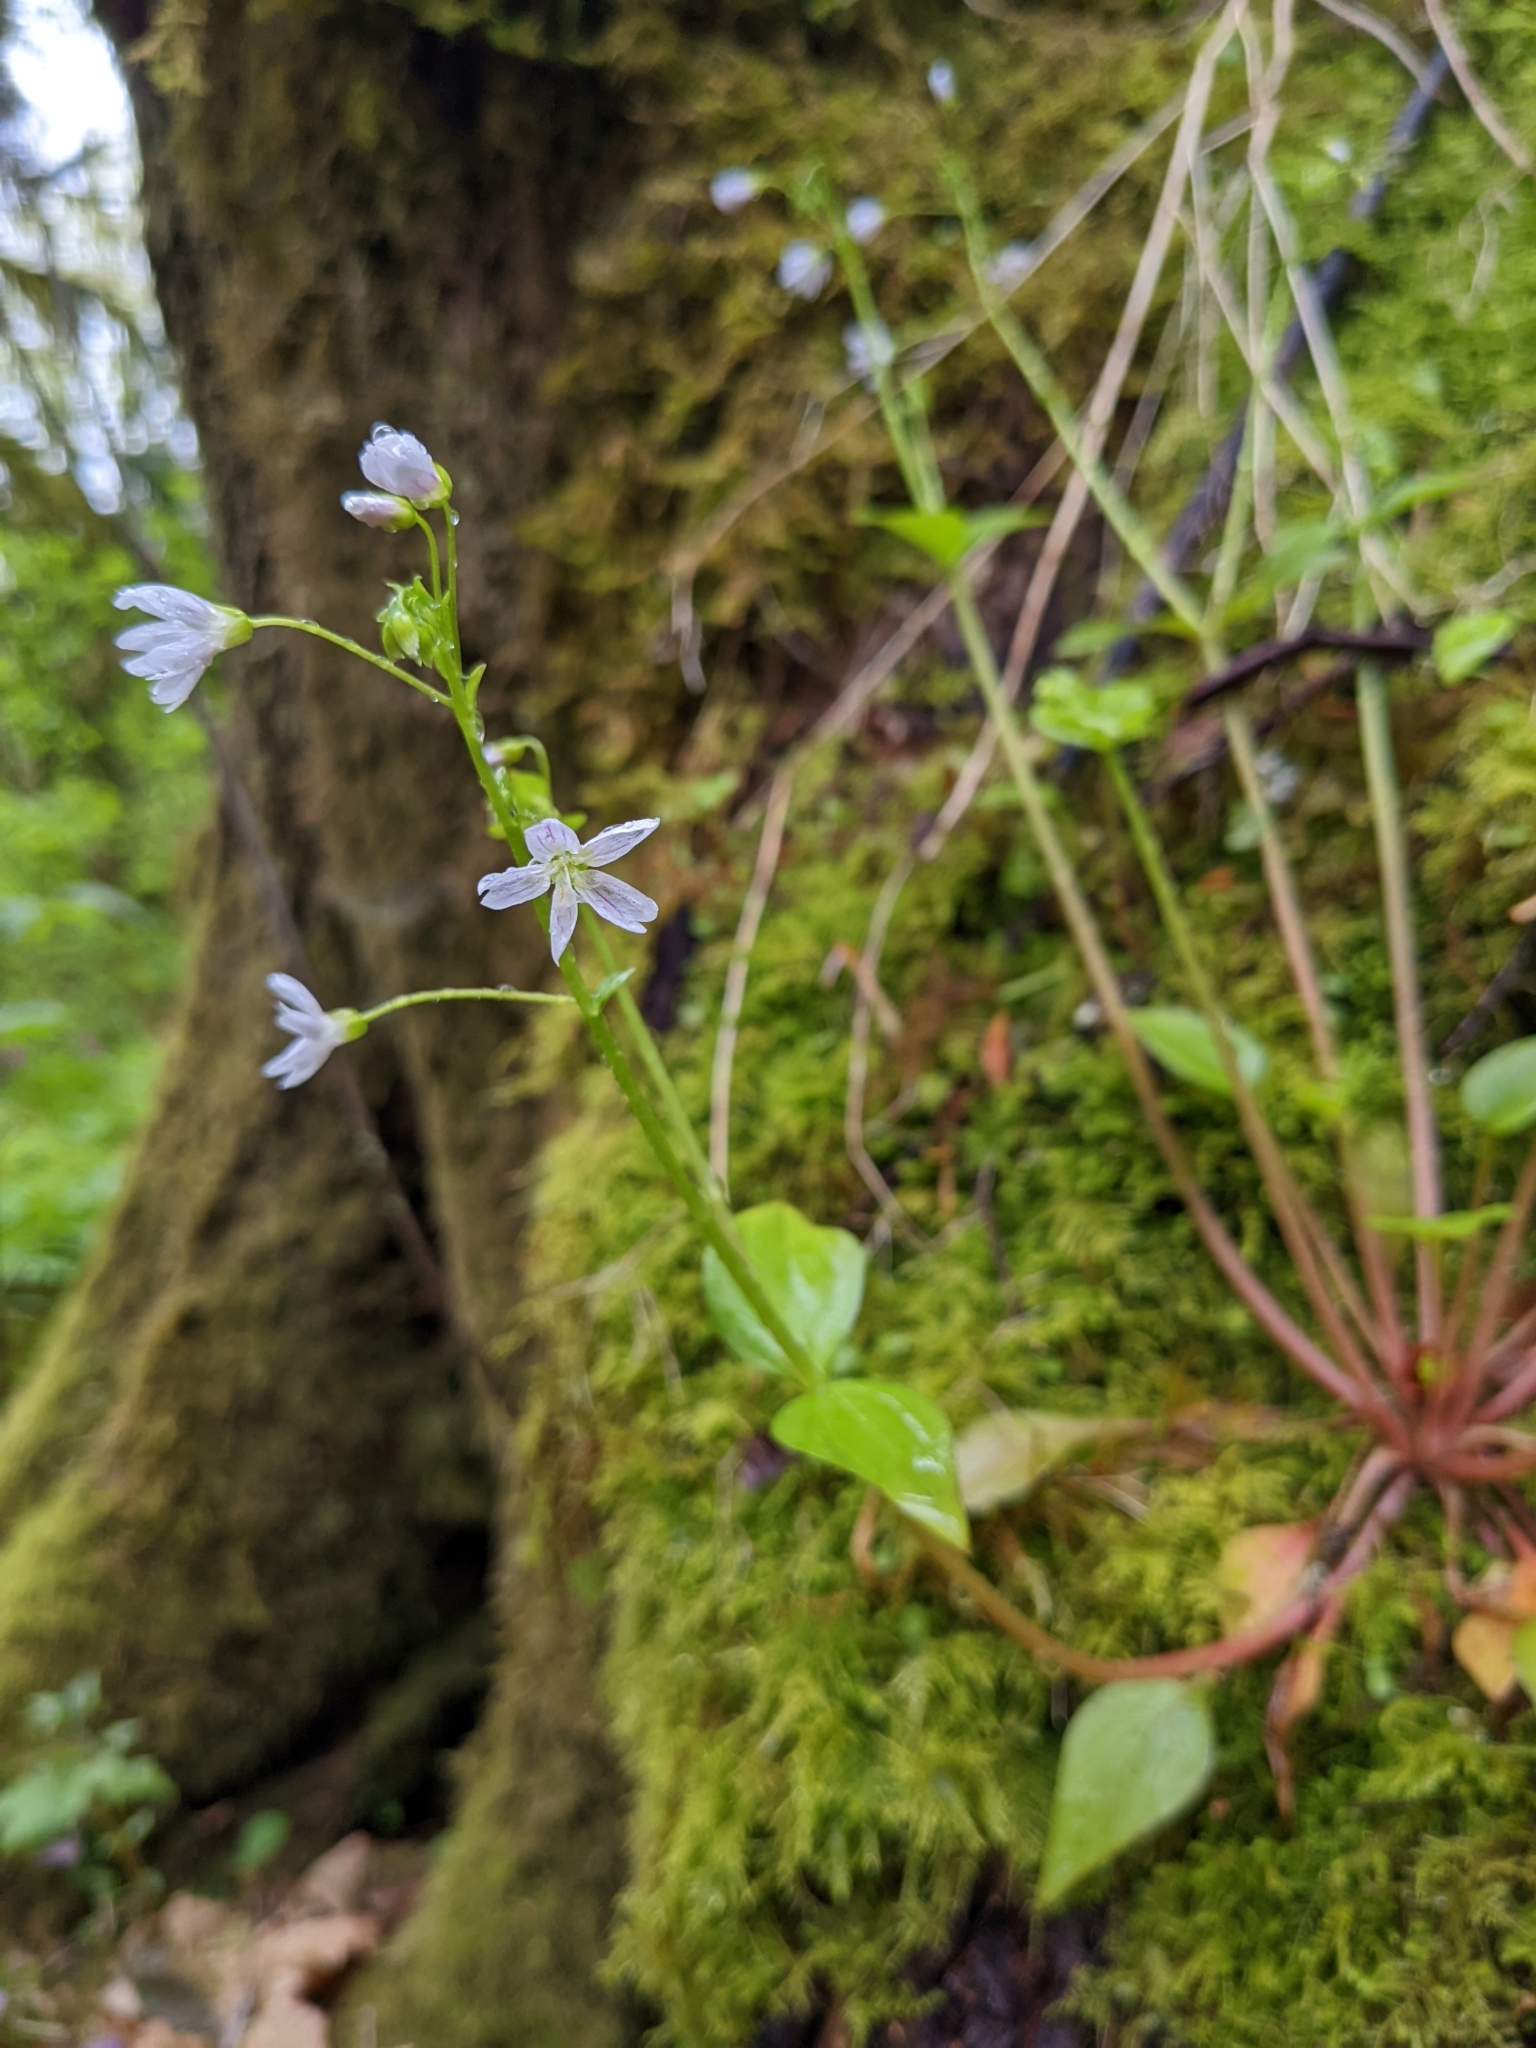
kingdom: Plantae
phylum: Tracheophyta
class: Magnoliopsida
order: Caryophyllales
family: Montiaceae
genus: Claytonia
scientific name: Claytonia sibirica
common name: Pink purslane
